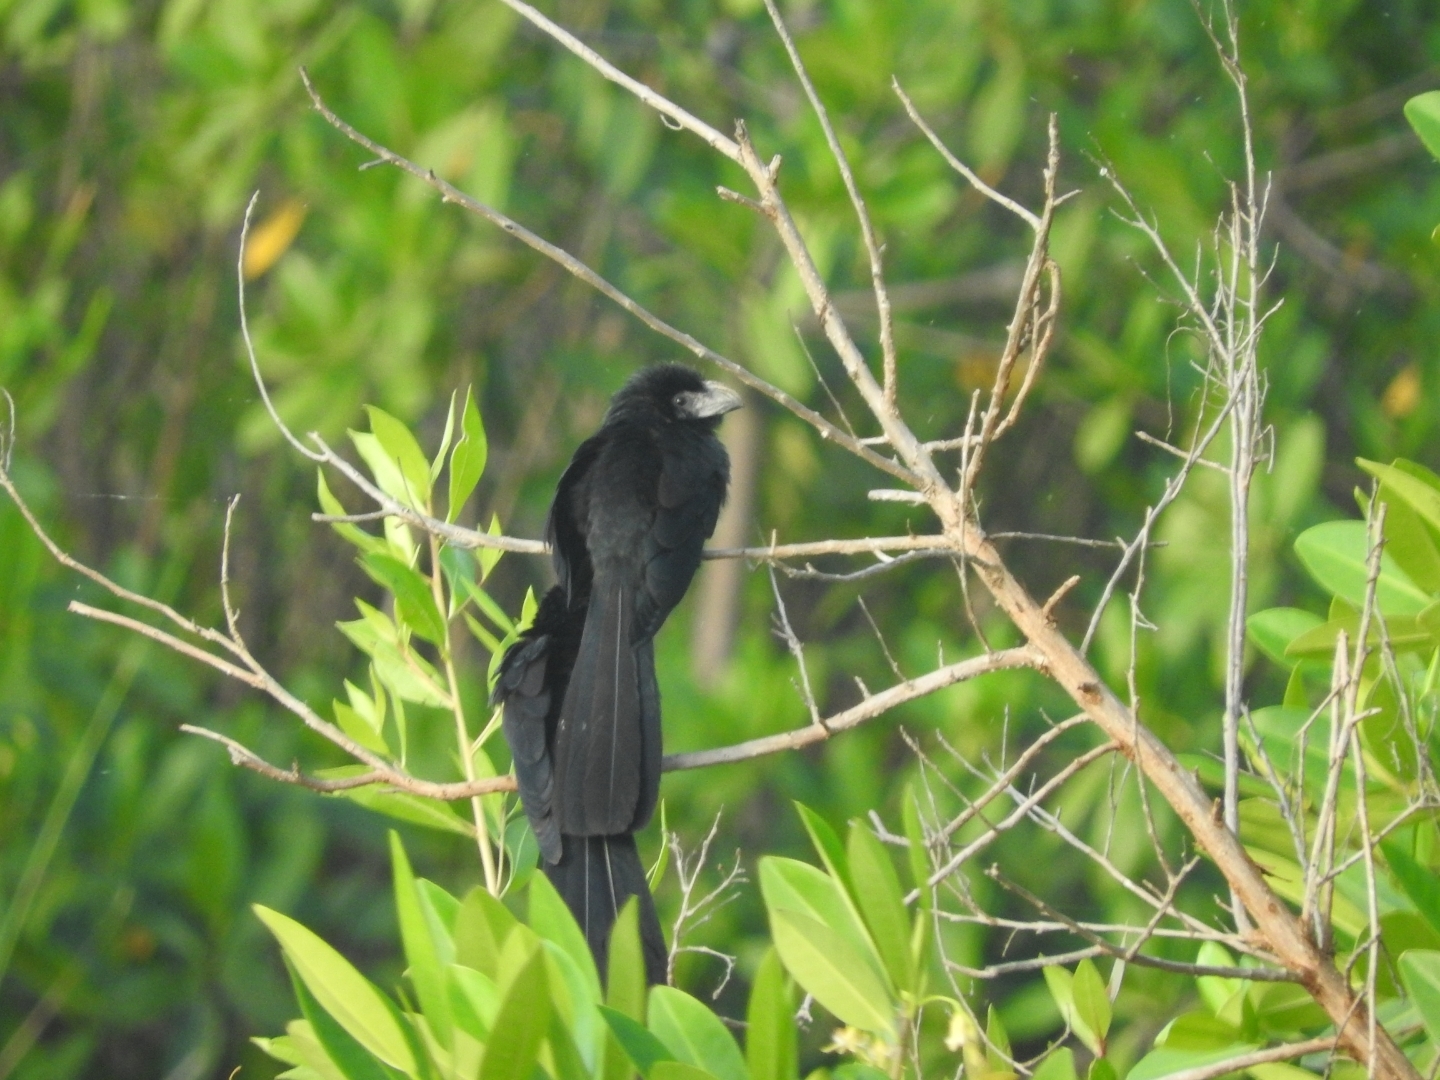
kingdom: Animalia
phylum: Chordata
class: Aves
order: Cuculiformes
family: Cuculidae
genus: Crotophaga
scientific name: Crotophaga sulcirostris
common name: Groove-billed ani
